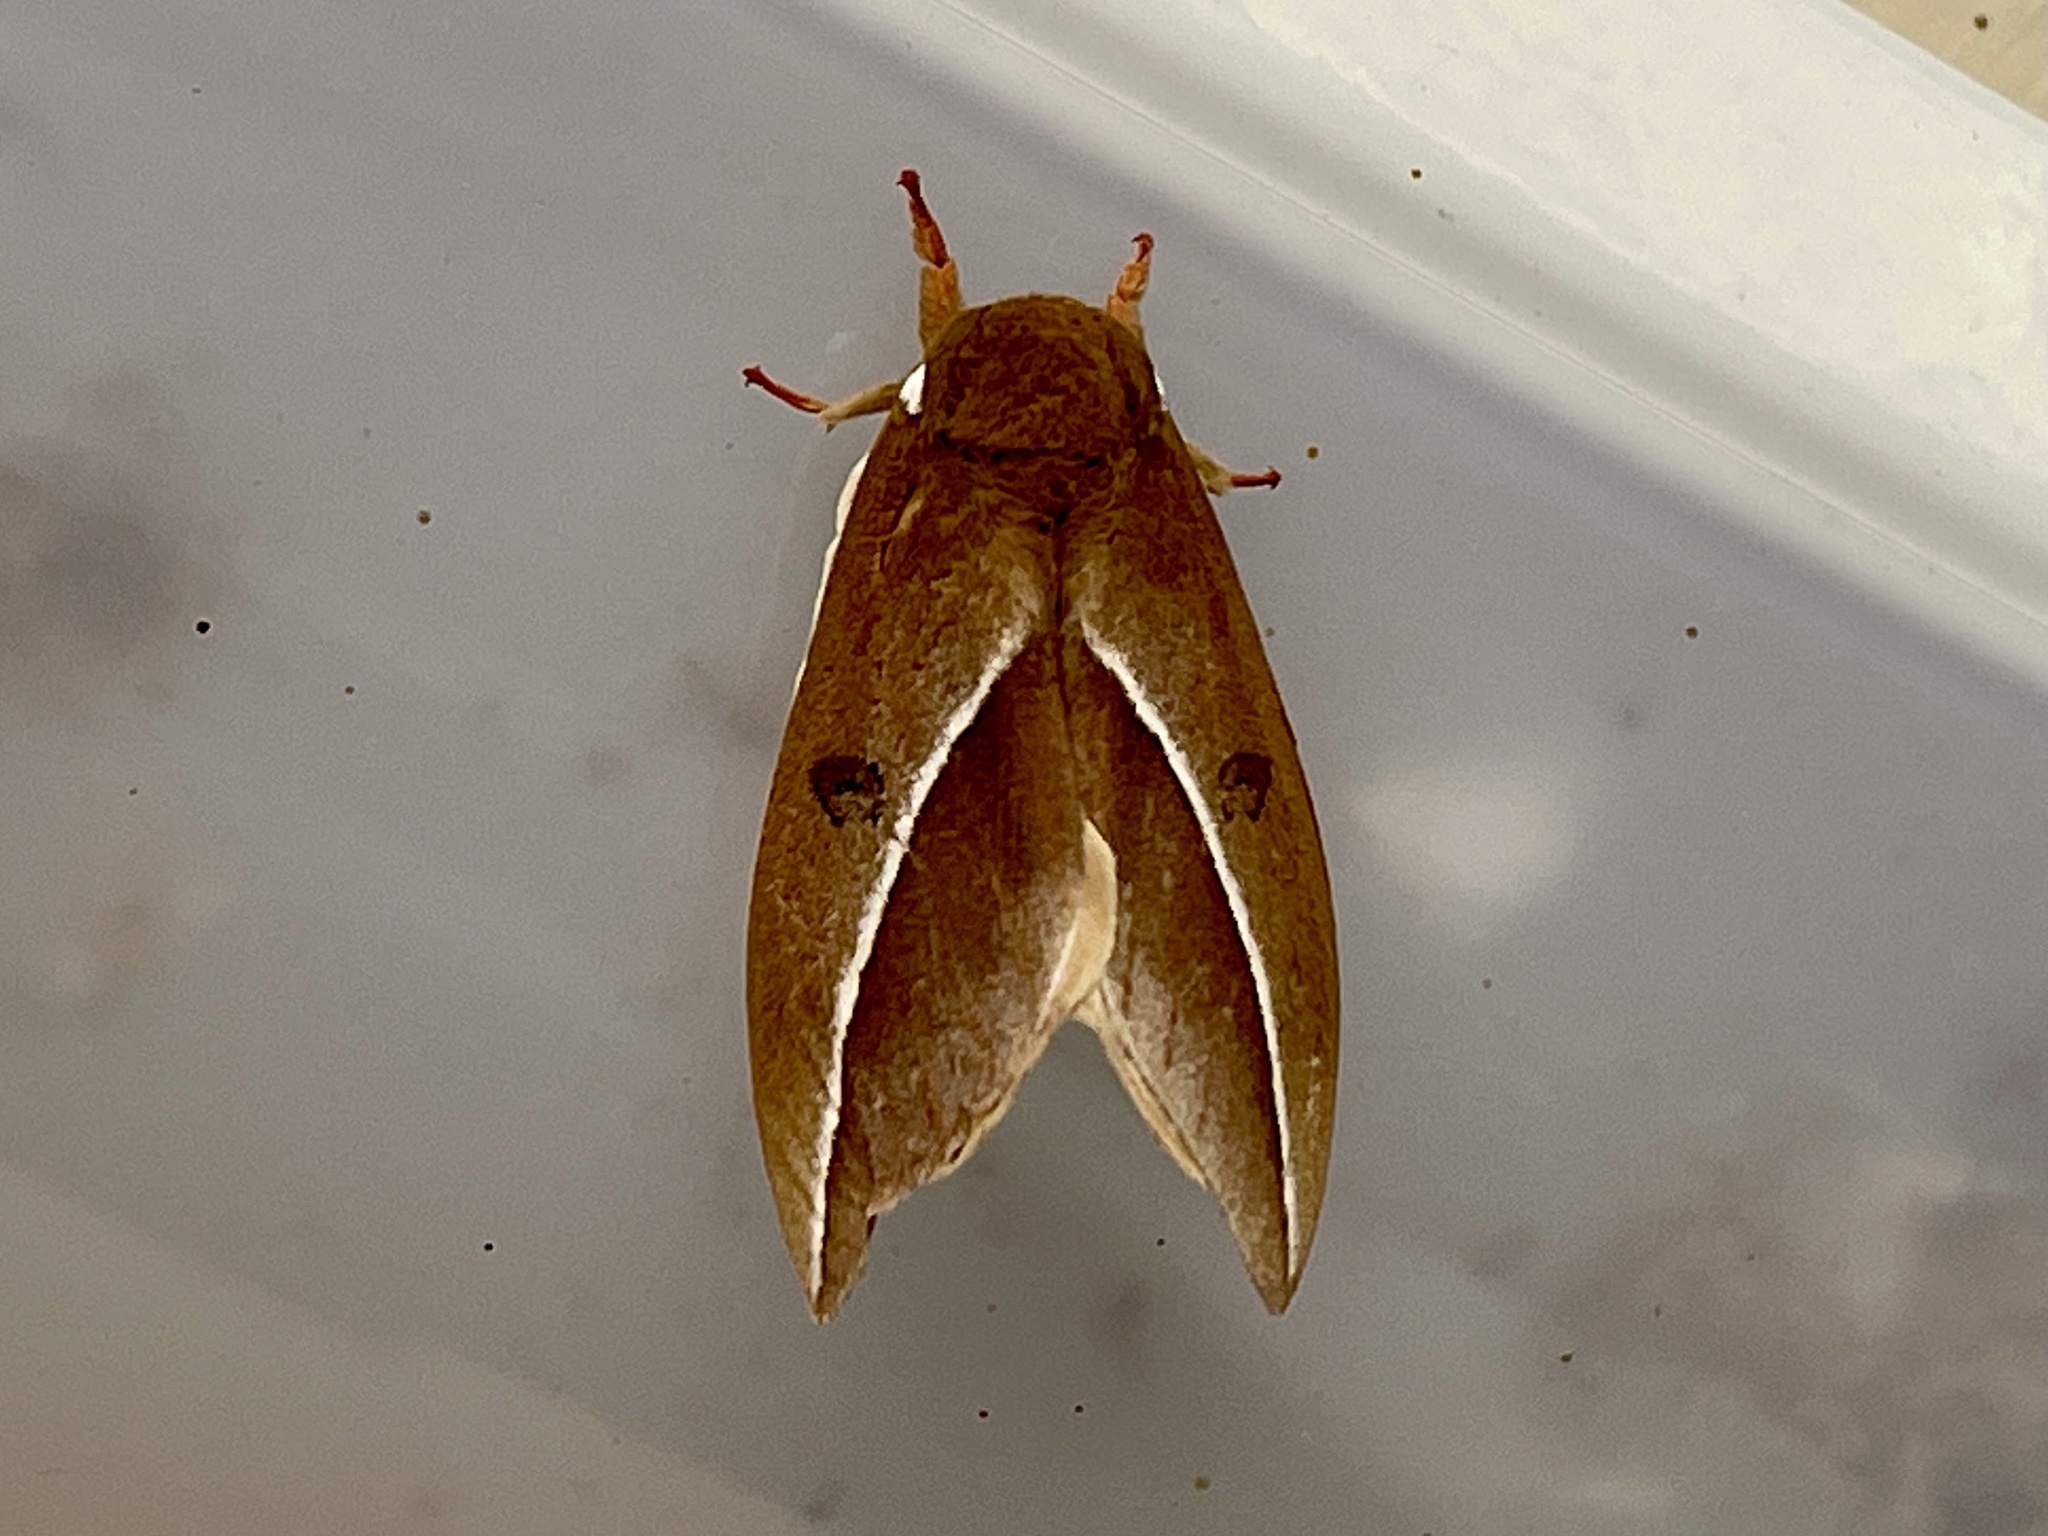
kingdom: Animalia
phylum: Arthropoda
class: Insecta
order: Lepidoptera
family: Saturniidae
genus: Automeris
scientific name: Automeris zephyria
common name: Zephyr eyed silkmoth
